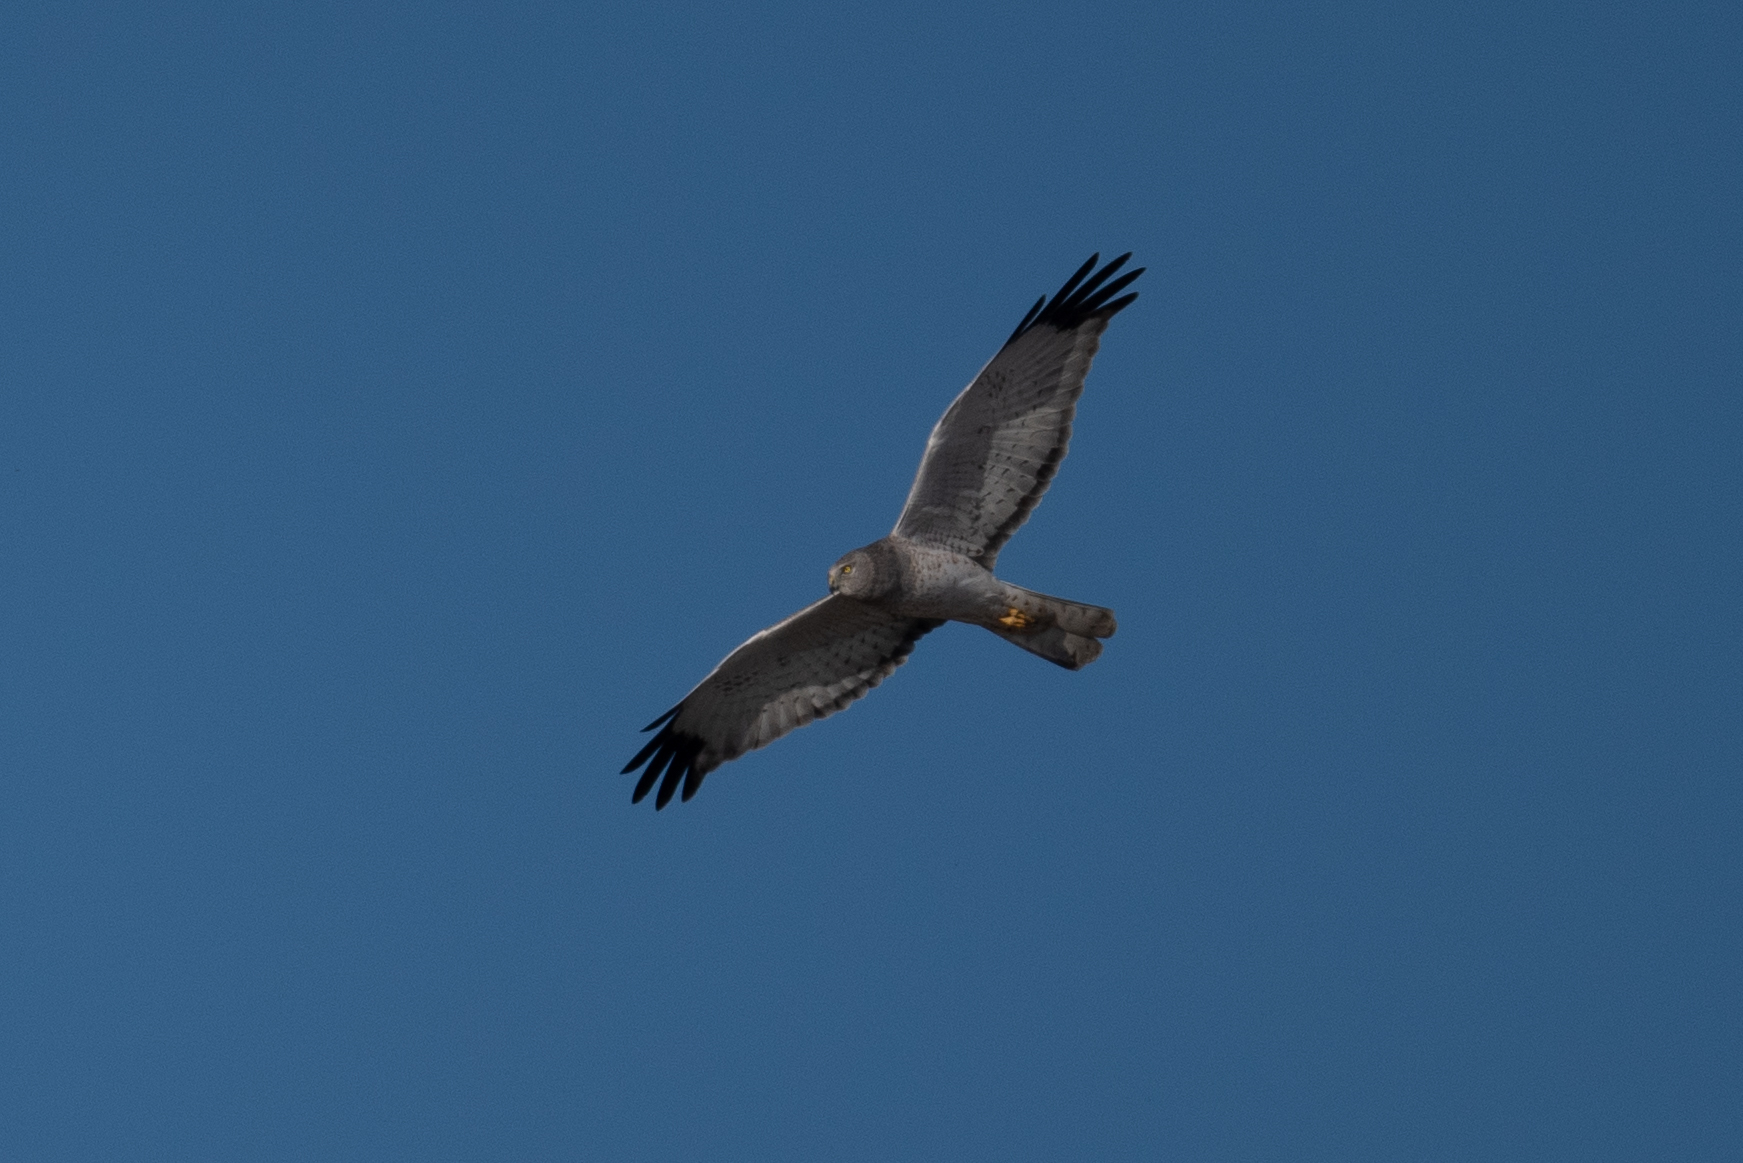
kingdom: Animalia
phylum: Chordata
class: Aves
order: Accipitriformes
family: Accipitridae
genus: Circus
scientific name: Circus cyaneus
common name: Hen harrier
